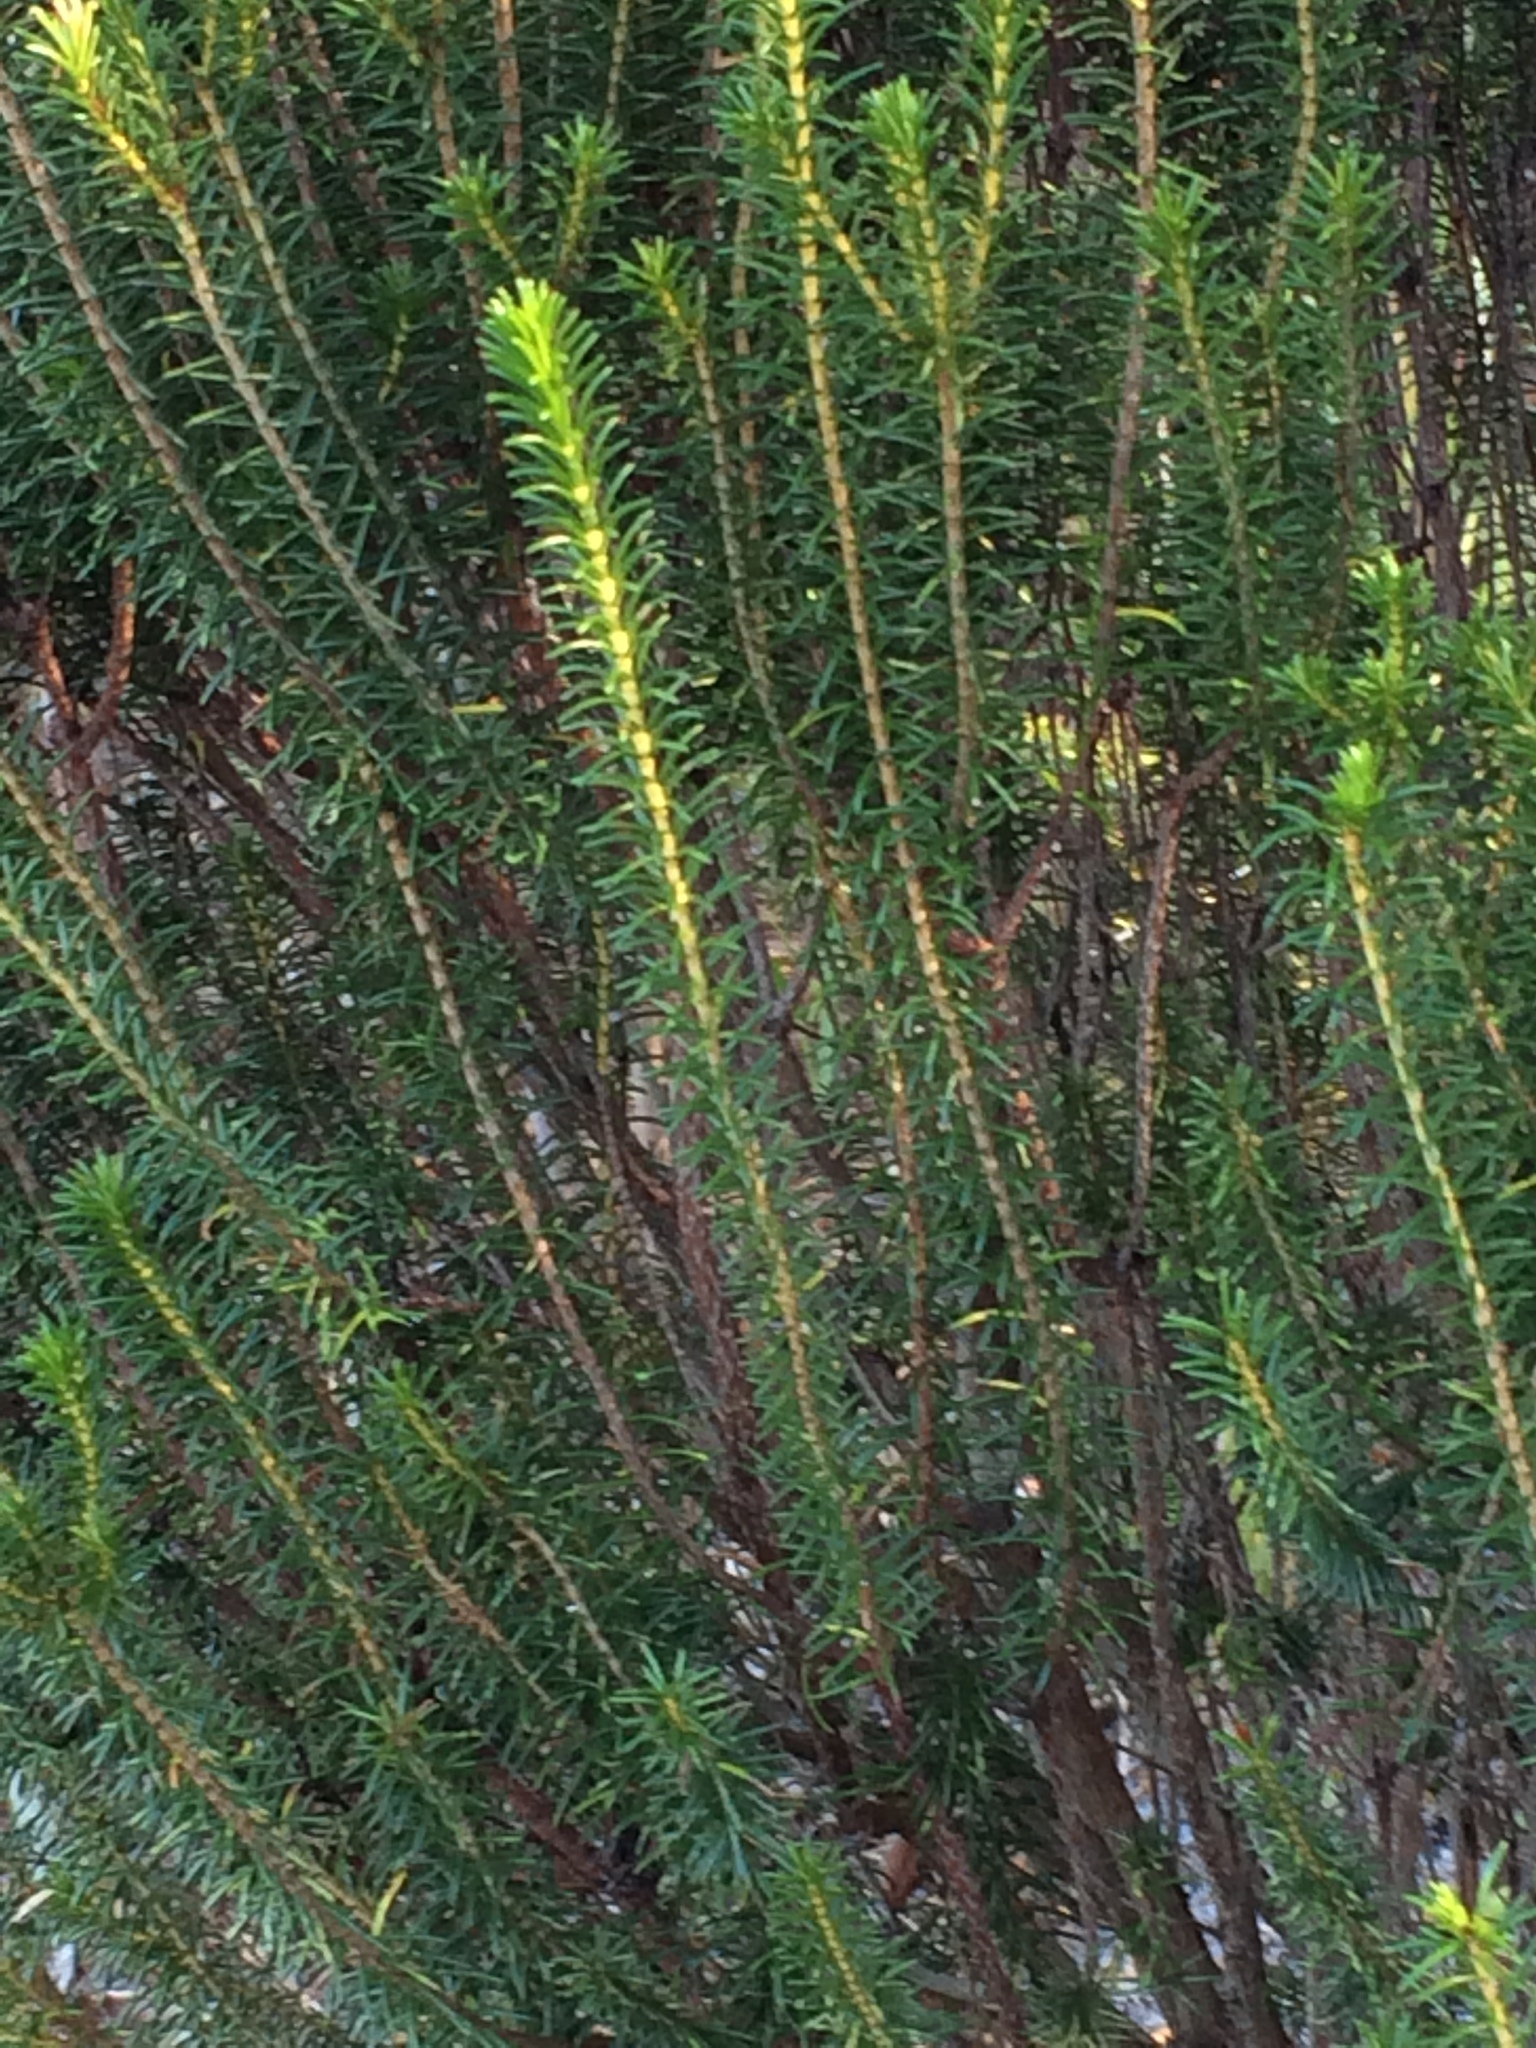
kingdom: Plantae
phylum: Tracheophyta
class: Magnoliopsida
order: Ericales
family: Ericaceae
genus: Ceratiola
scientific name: Ceratiola ericoides
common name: Sandhill-rosemary
